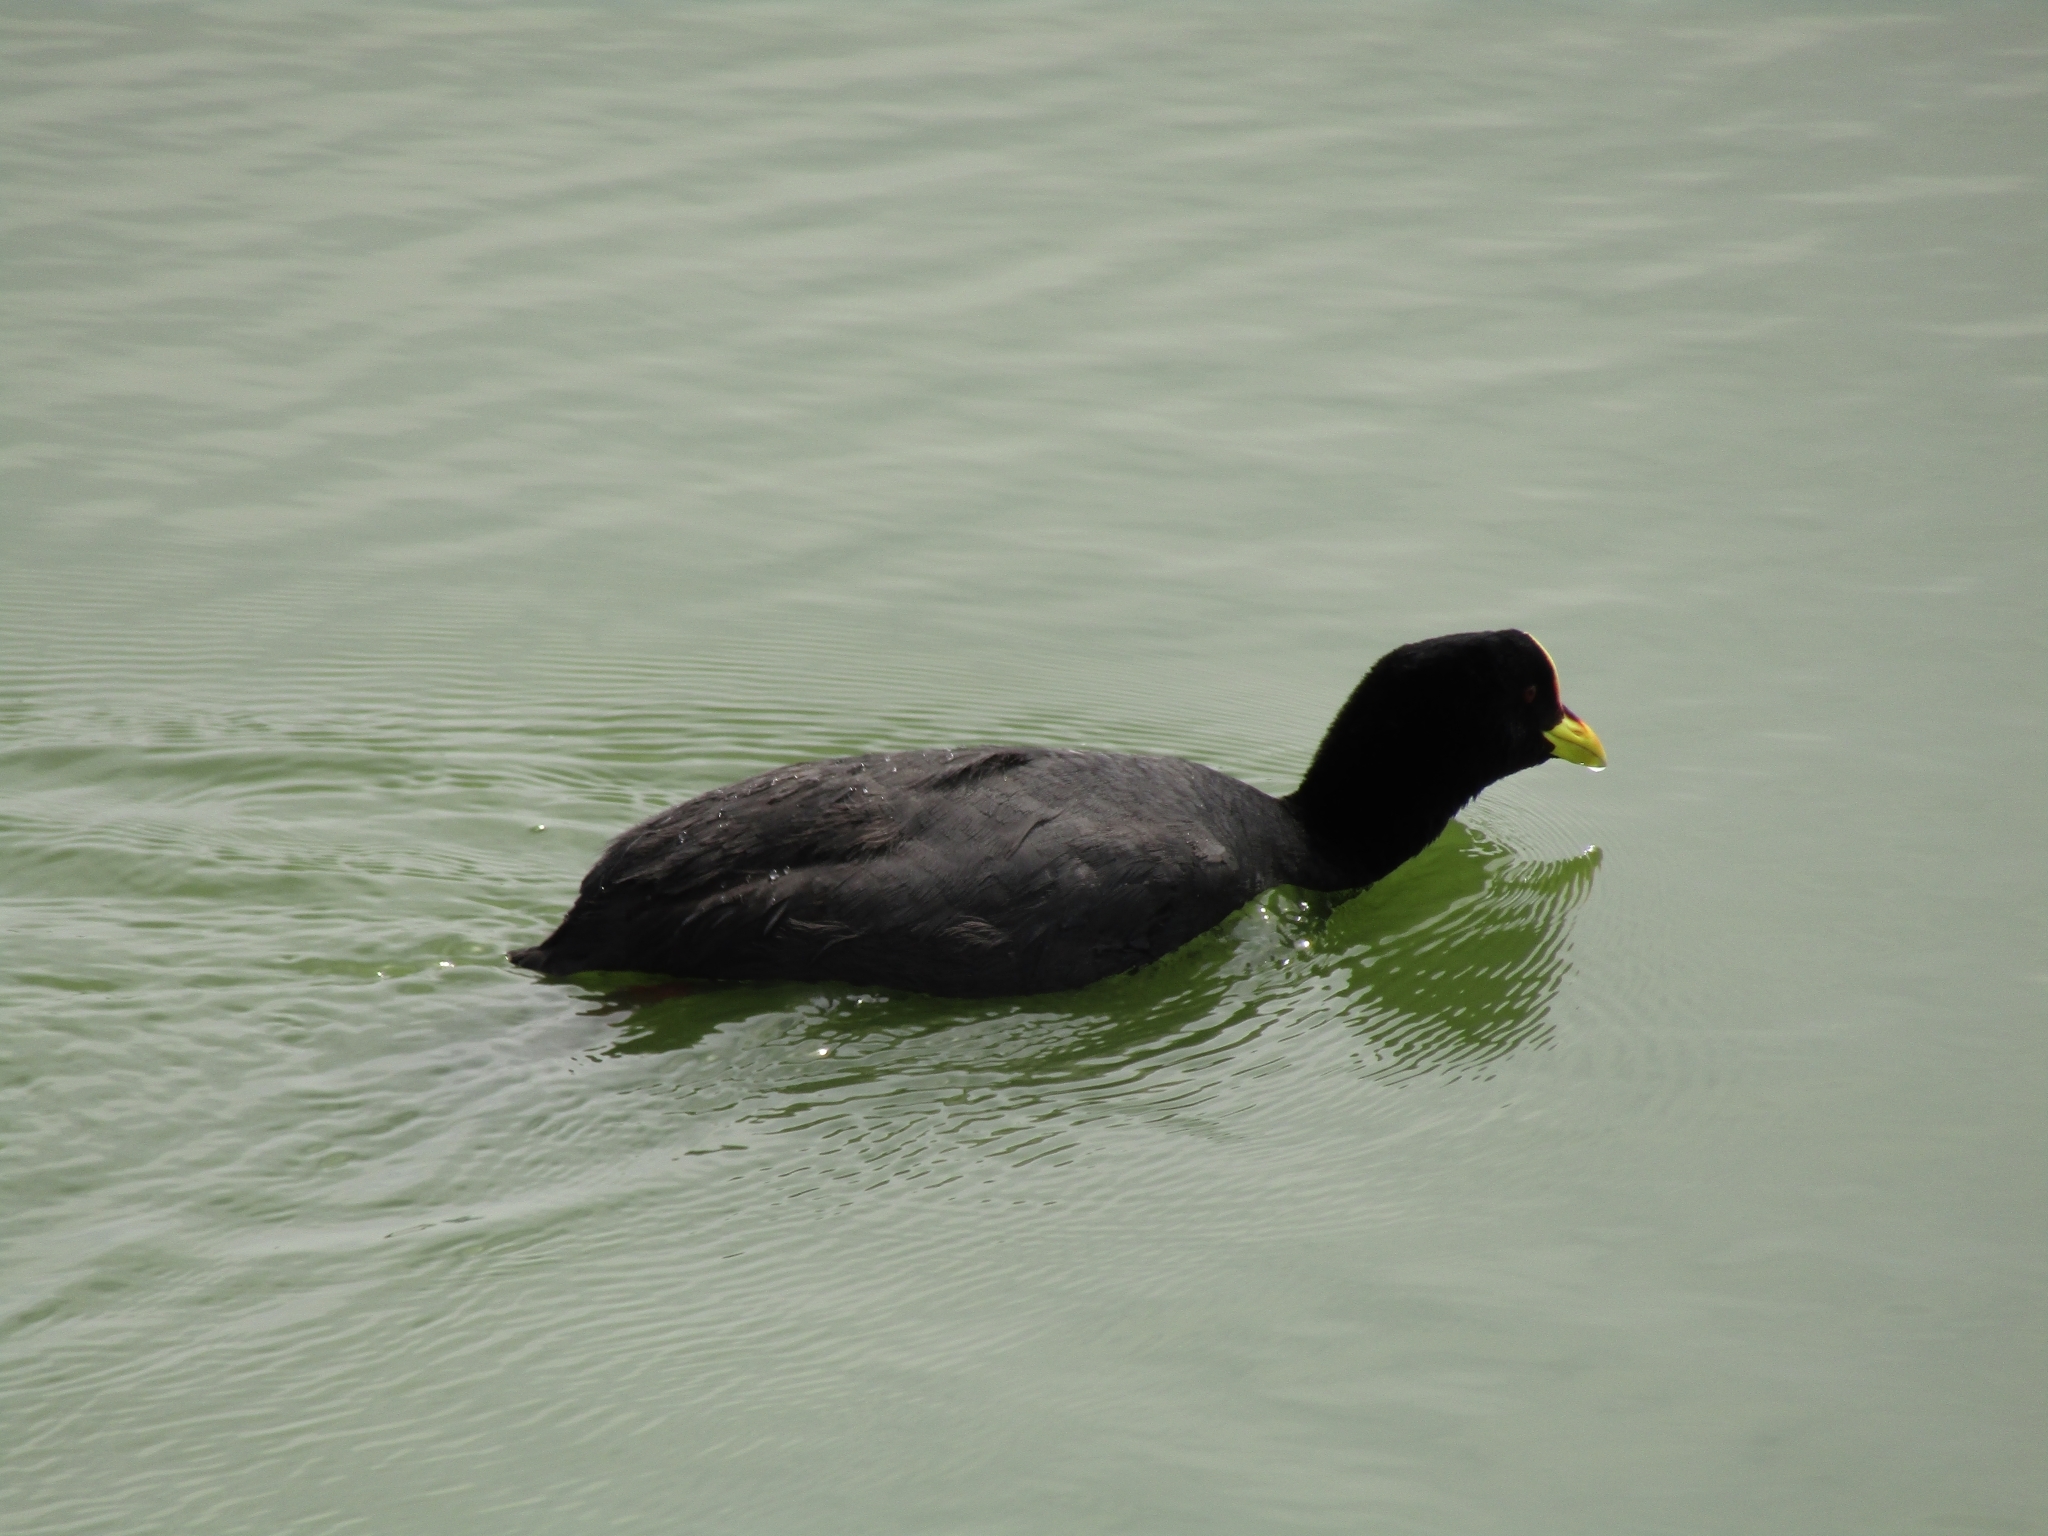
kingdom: Animalia
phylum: Chordata
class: Aves
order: Gruiformes
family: Rallidae
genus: Fulica
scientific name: Fulica armillata
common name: Red-gartered coot
